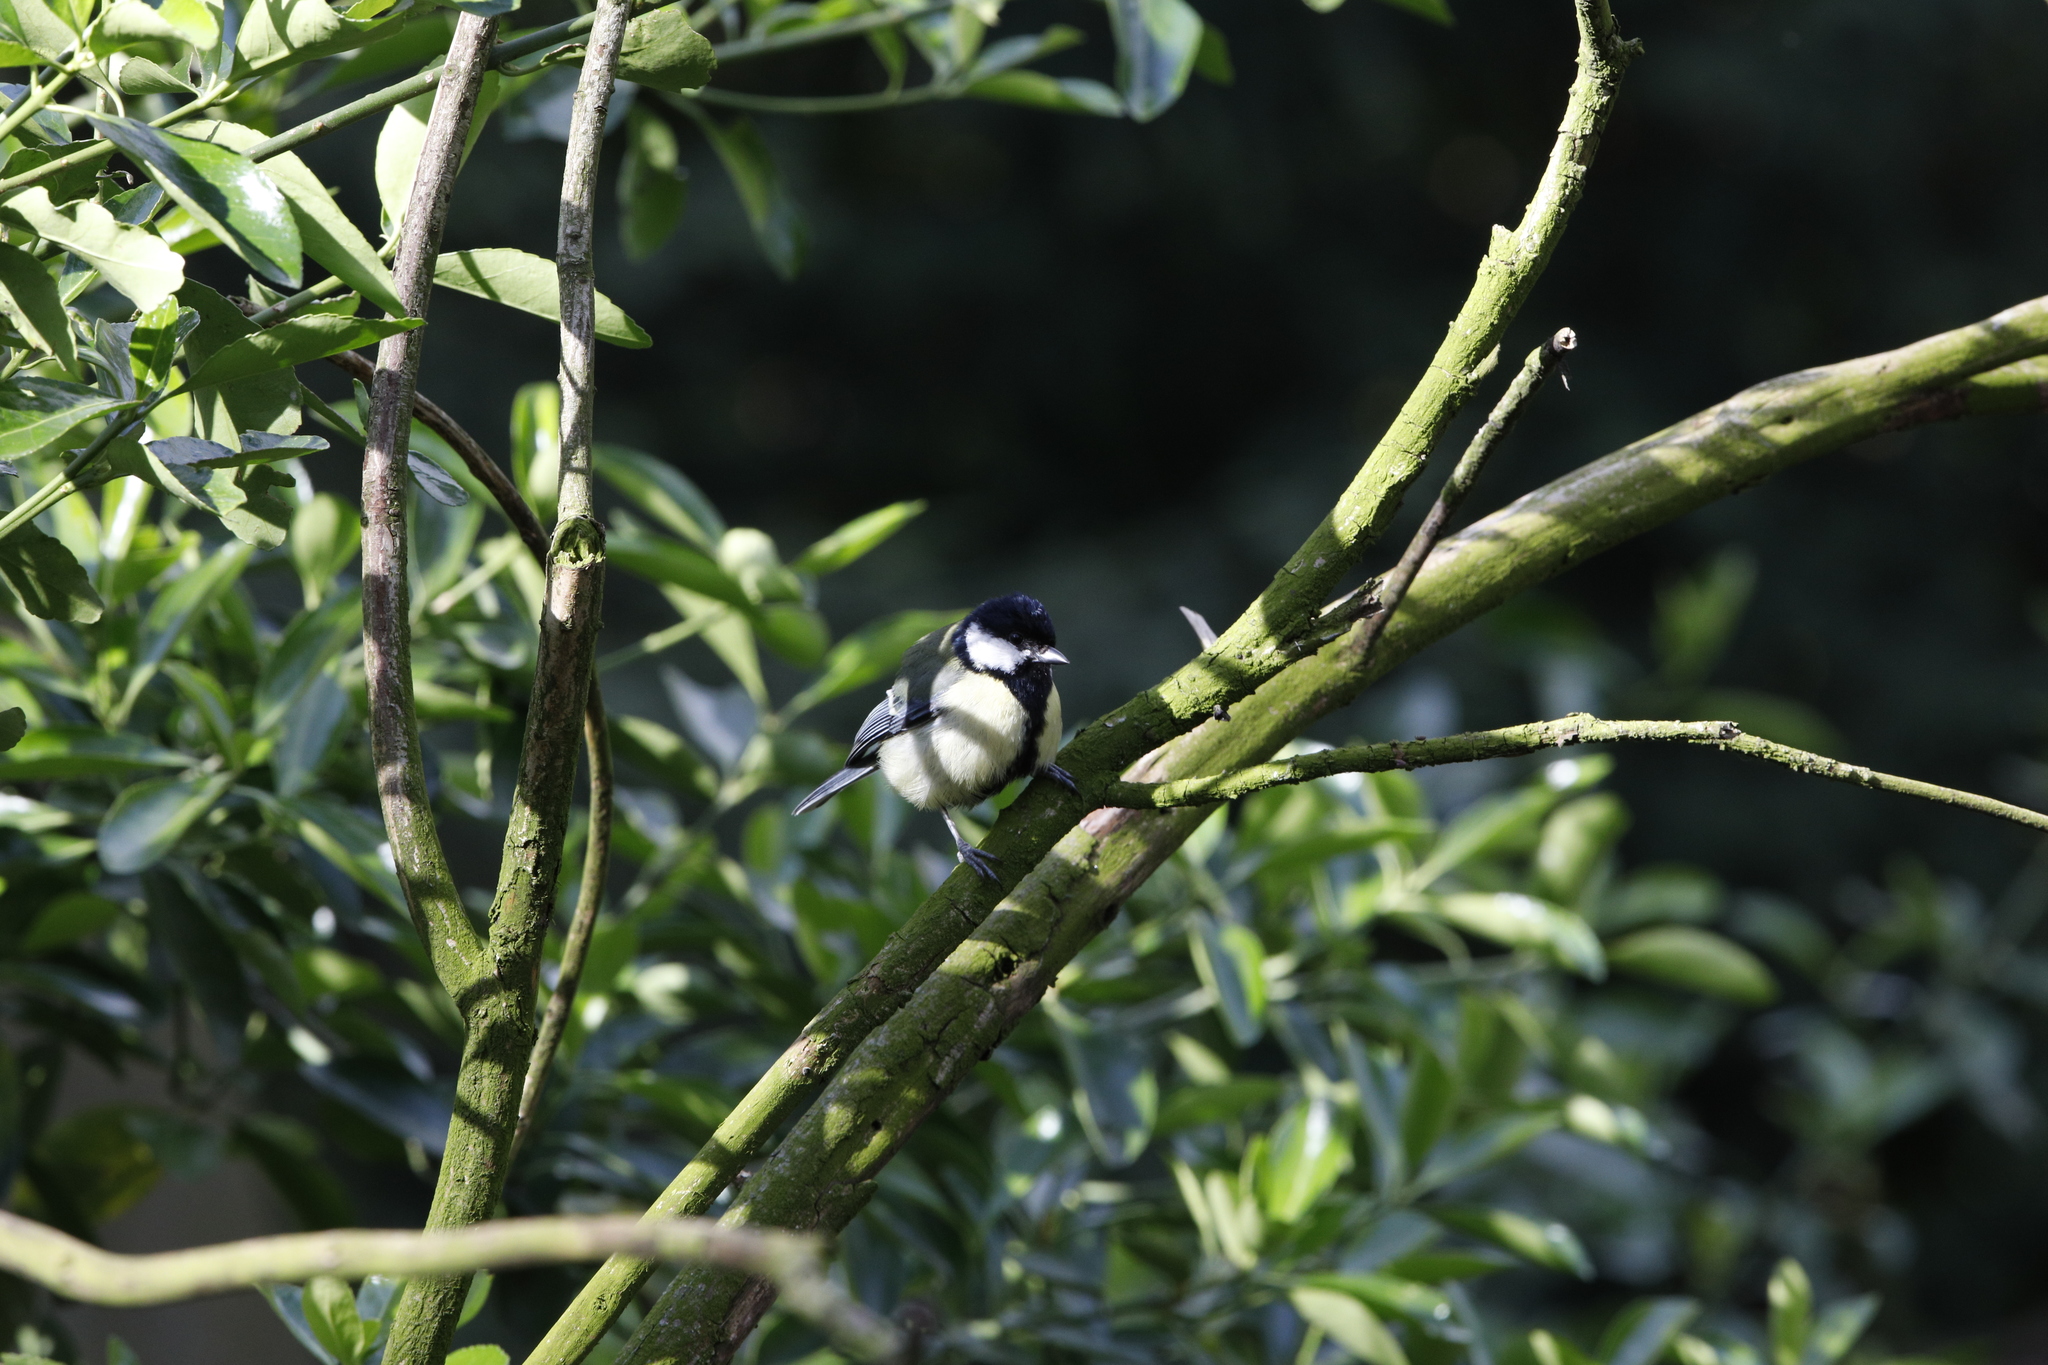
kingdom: Animalia
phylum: Chordata
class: Aves
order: Passeriformes
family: Paridae
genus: Parus
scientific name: Parus major
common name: Great tit
